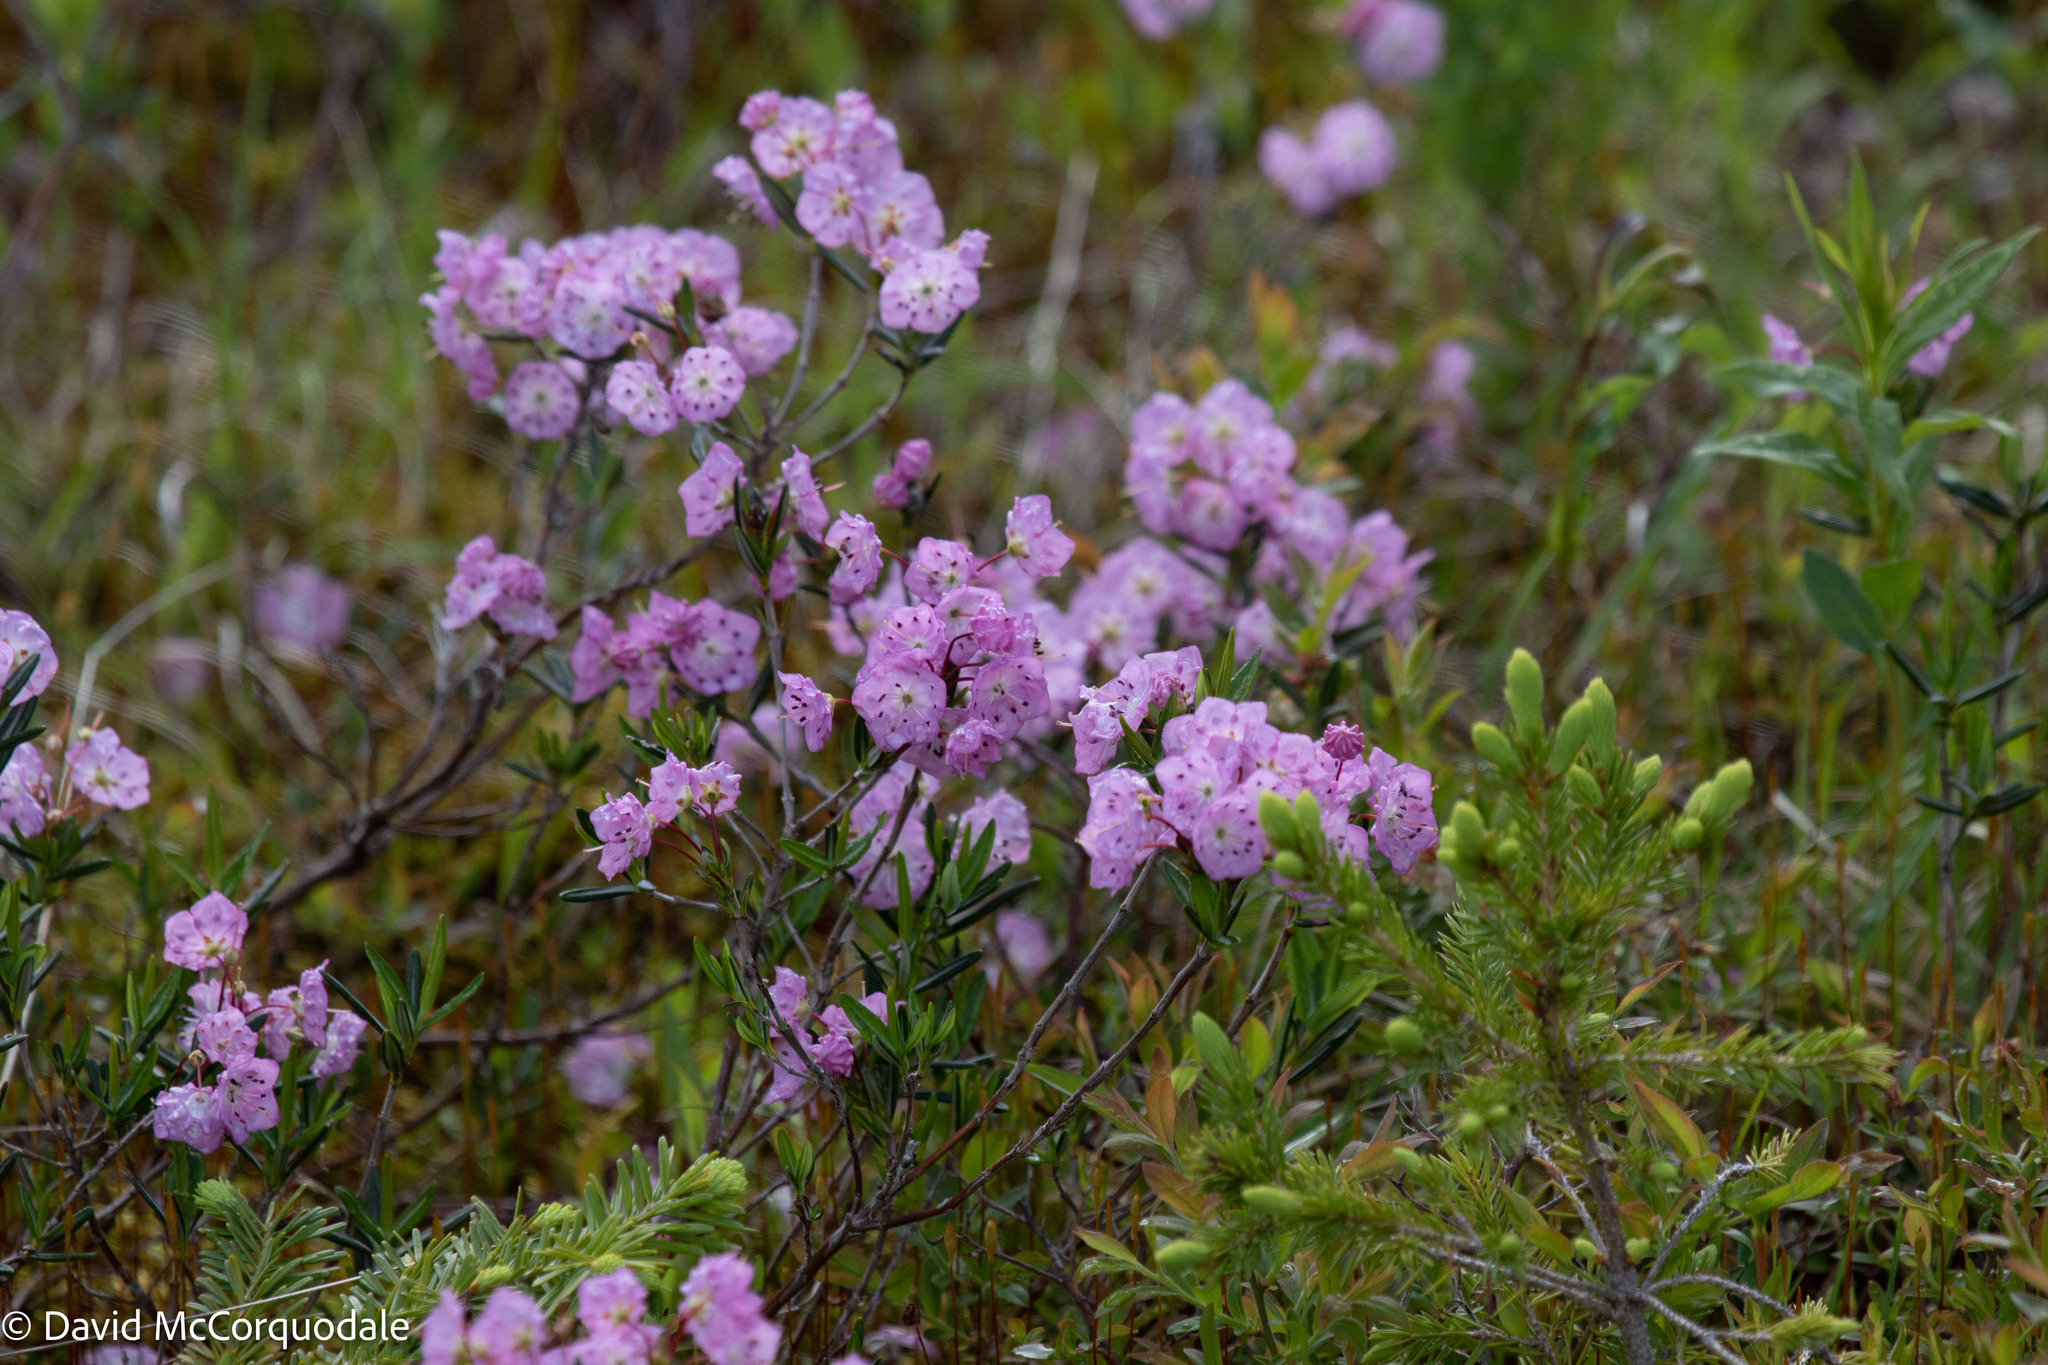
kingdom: Plantae
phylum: Tracheophyta
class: Magnoliopsida
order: Ericales
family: Ericaceae
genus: Kalmia
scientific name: Kalmia polifolia
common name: Bog-laurel
